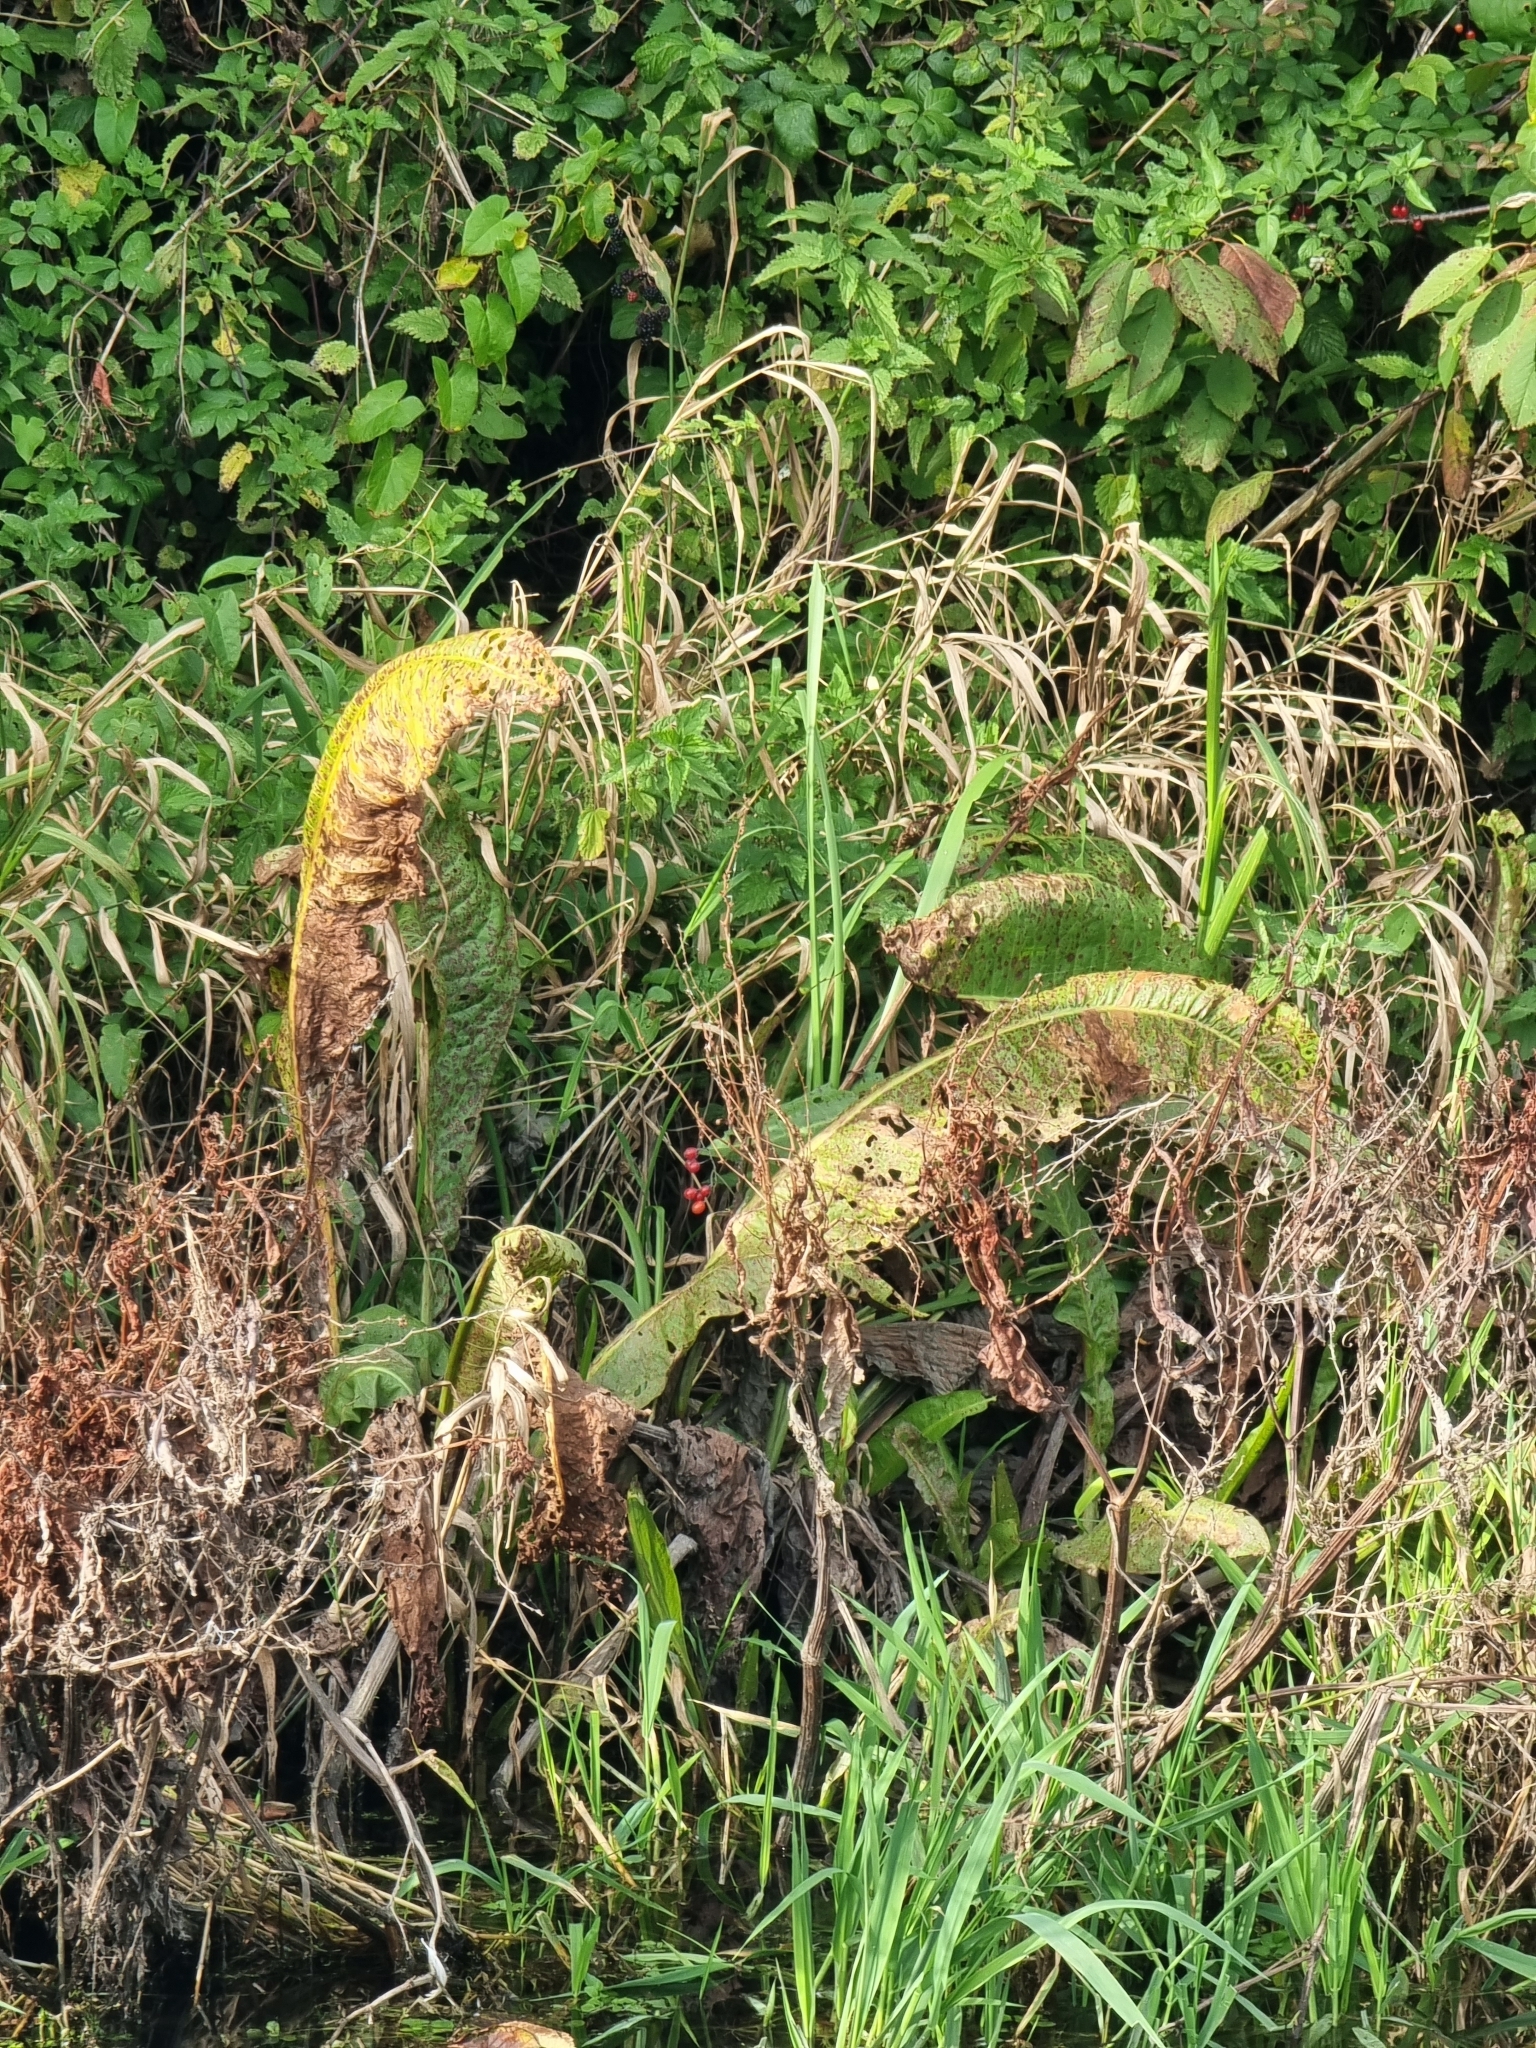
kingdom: Plantae
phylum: Tracheophyta
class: Magnoliopsida
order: Caryophyllales
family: Polygonaceae
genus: Rumex
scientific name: Rumex hydrolapathum
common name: Water dock
